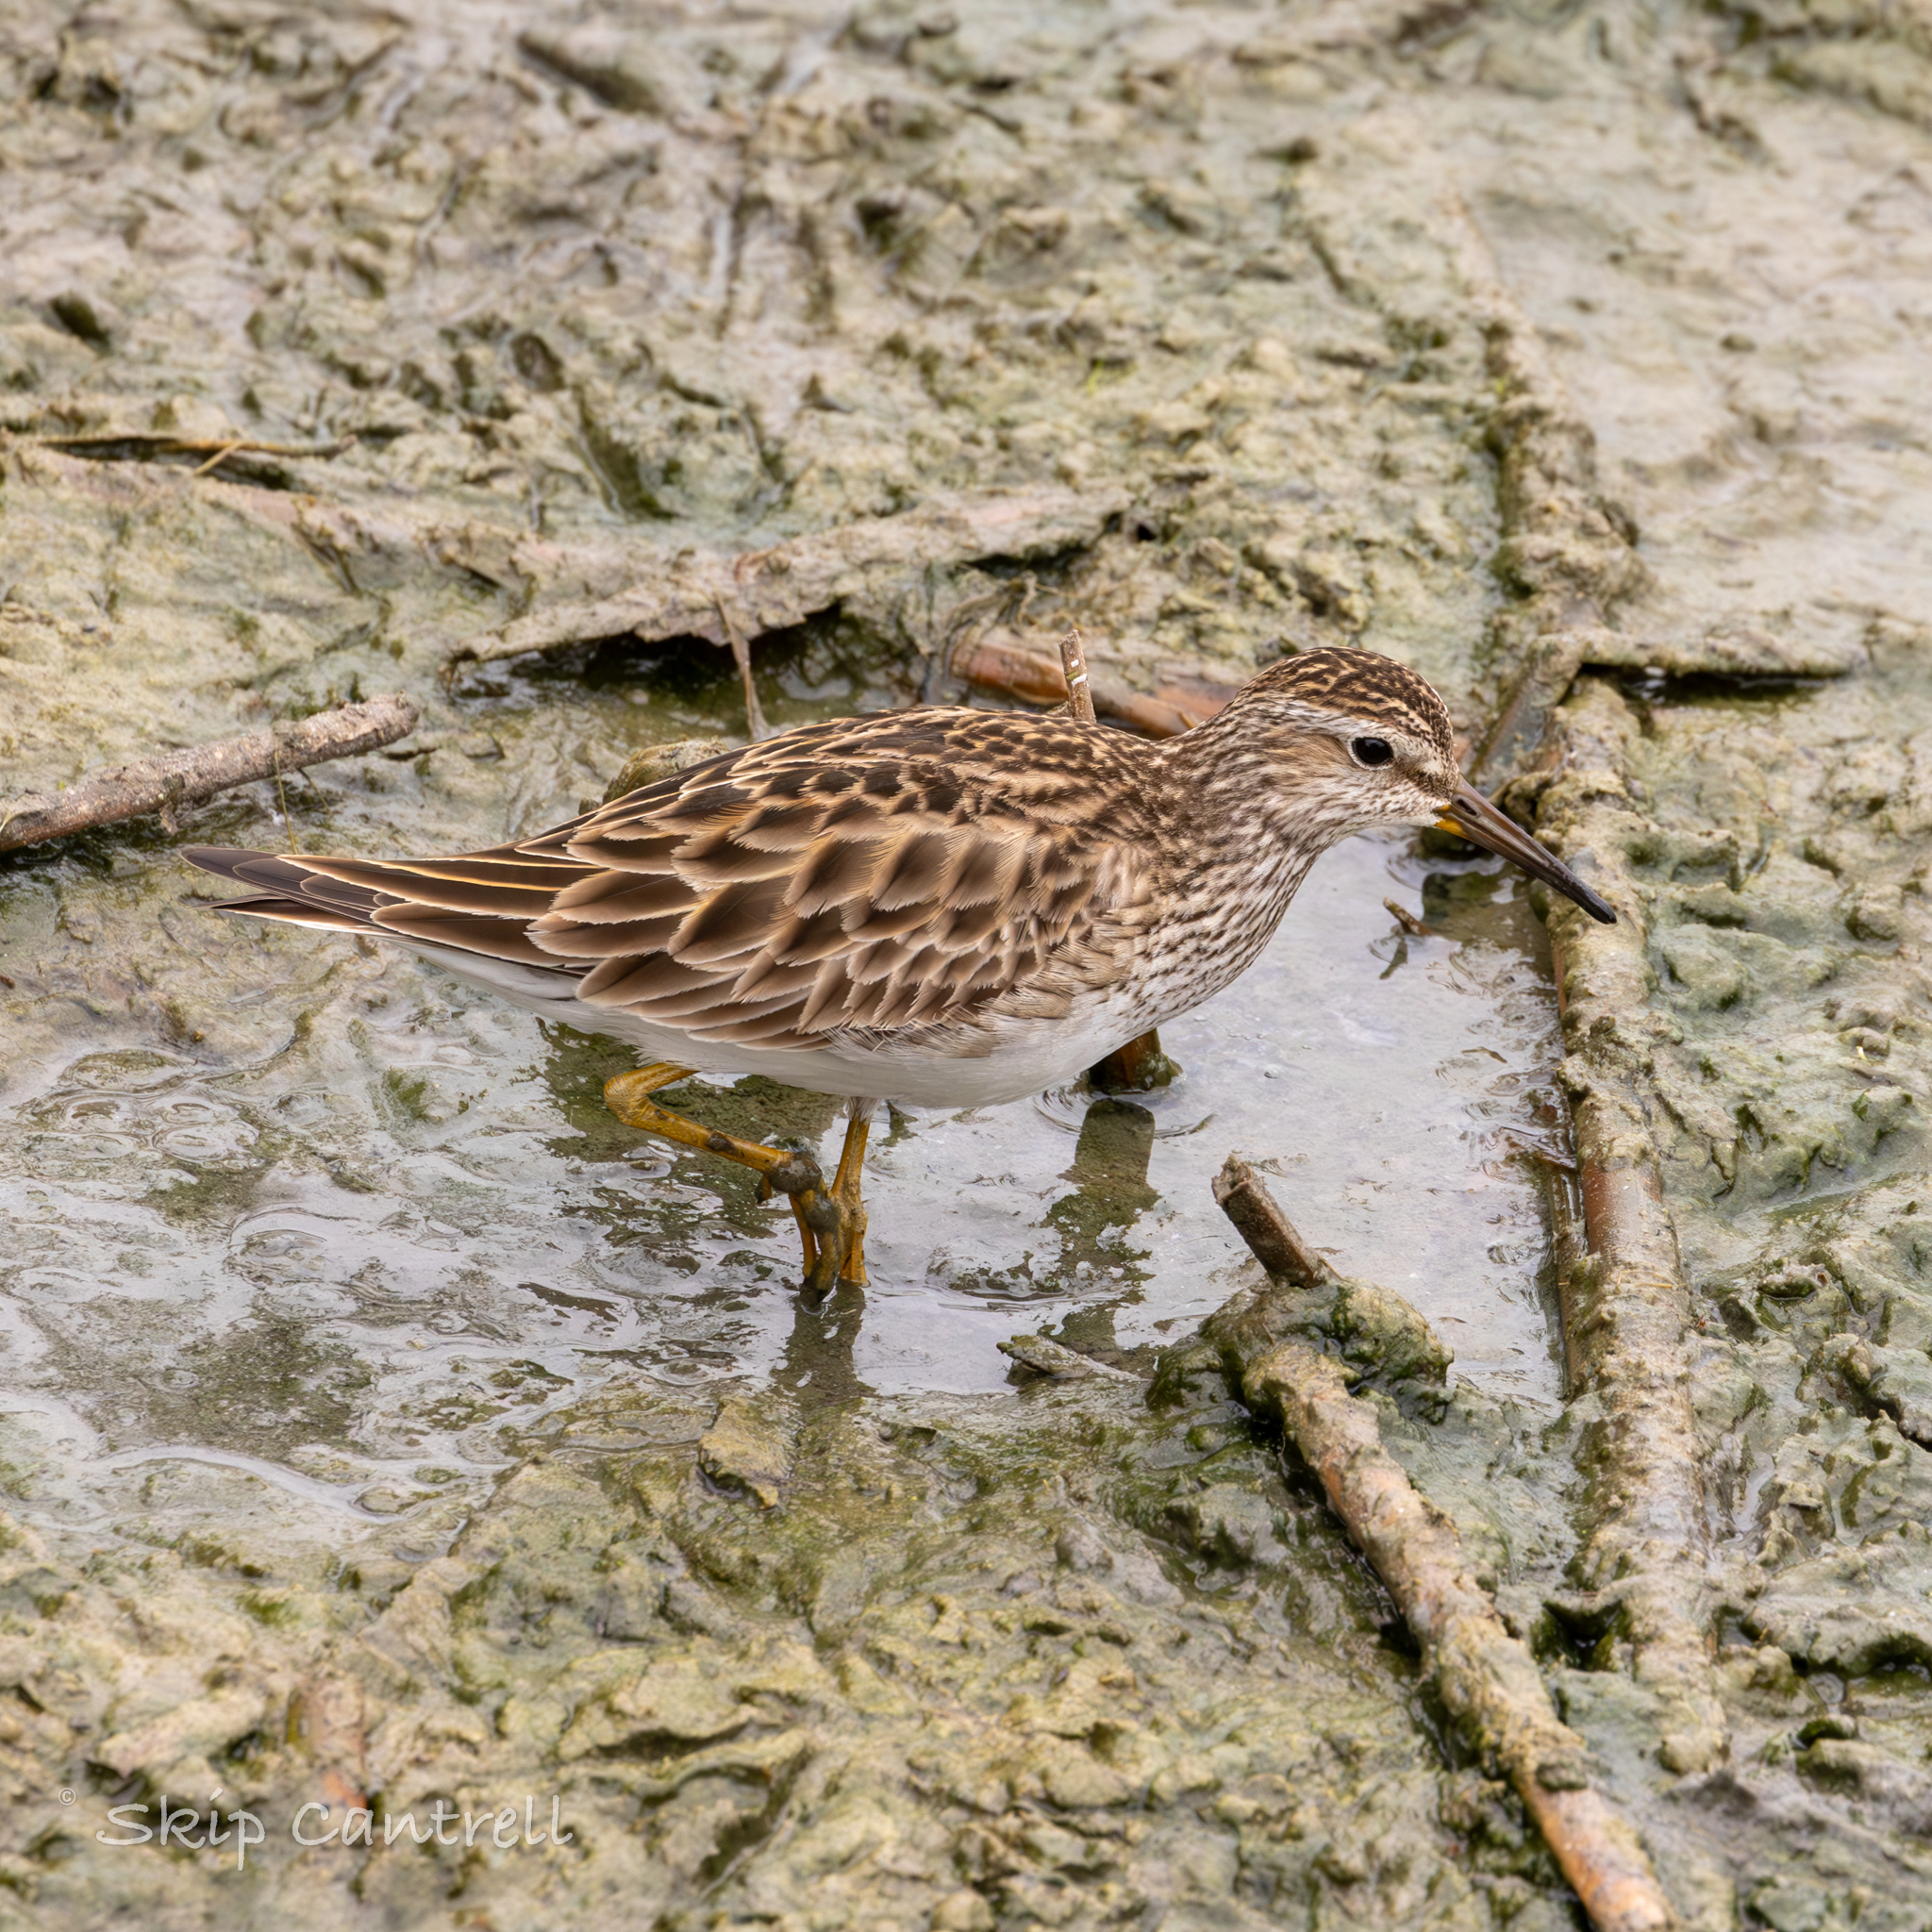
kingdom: Animalia
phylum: Chordata
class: Aves
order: Charadriiformes
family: Scolopacidae
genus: Calidris
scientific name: Calidris melanotos
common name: Pectoral sandpiper
